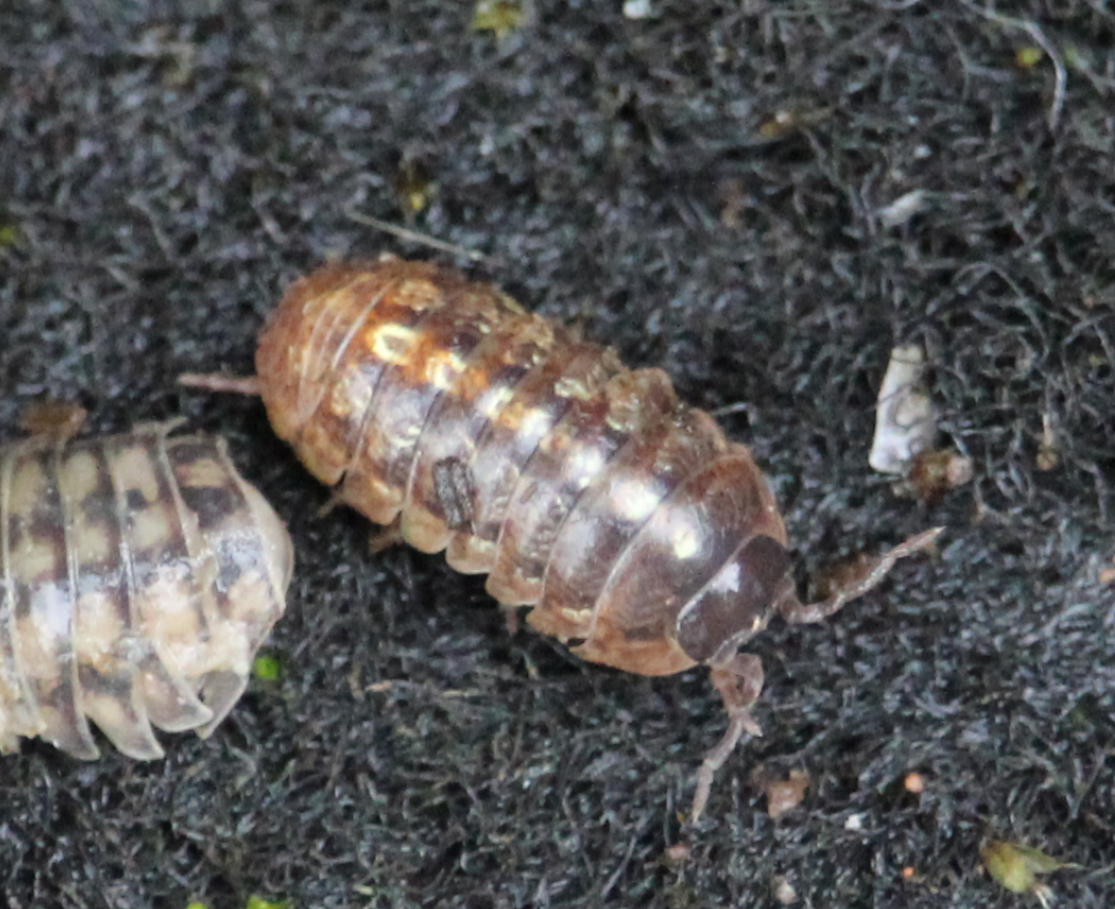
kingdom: Animalia
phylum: Arthropoda
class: Malacostraca
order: Isopoda
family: Armadillidiidae
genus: Armadillidium
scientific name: Armadillidium vulgare
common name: Common pill woodlouse
